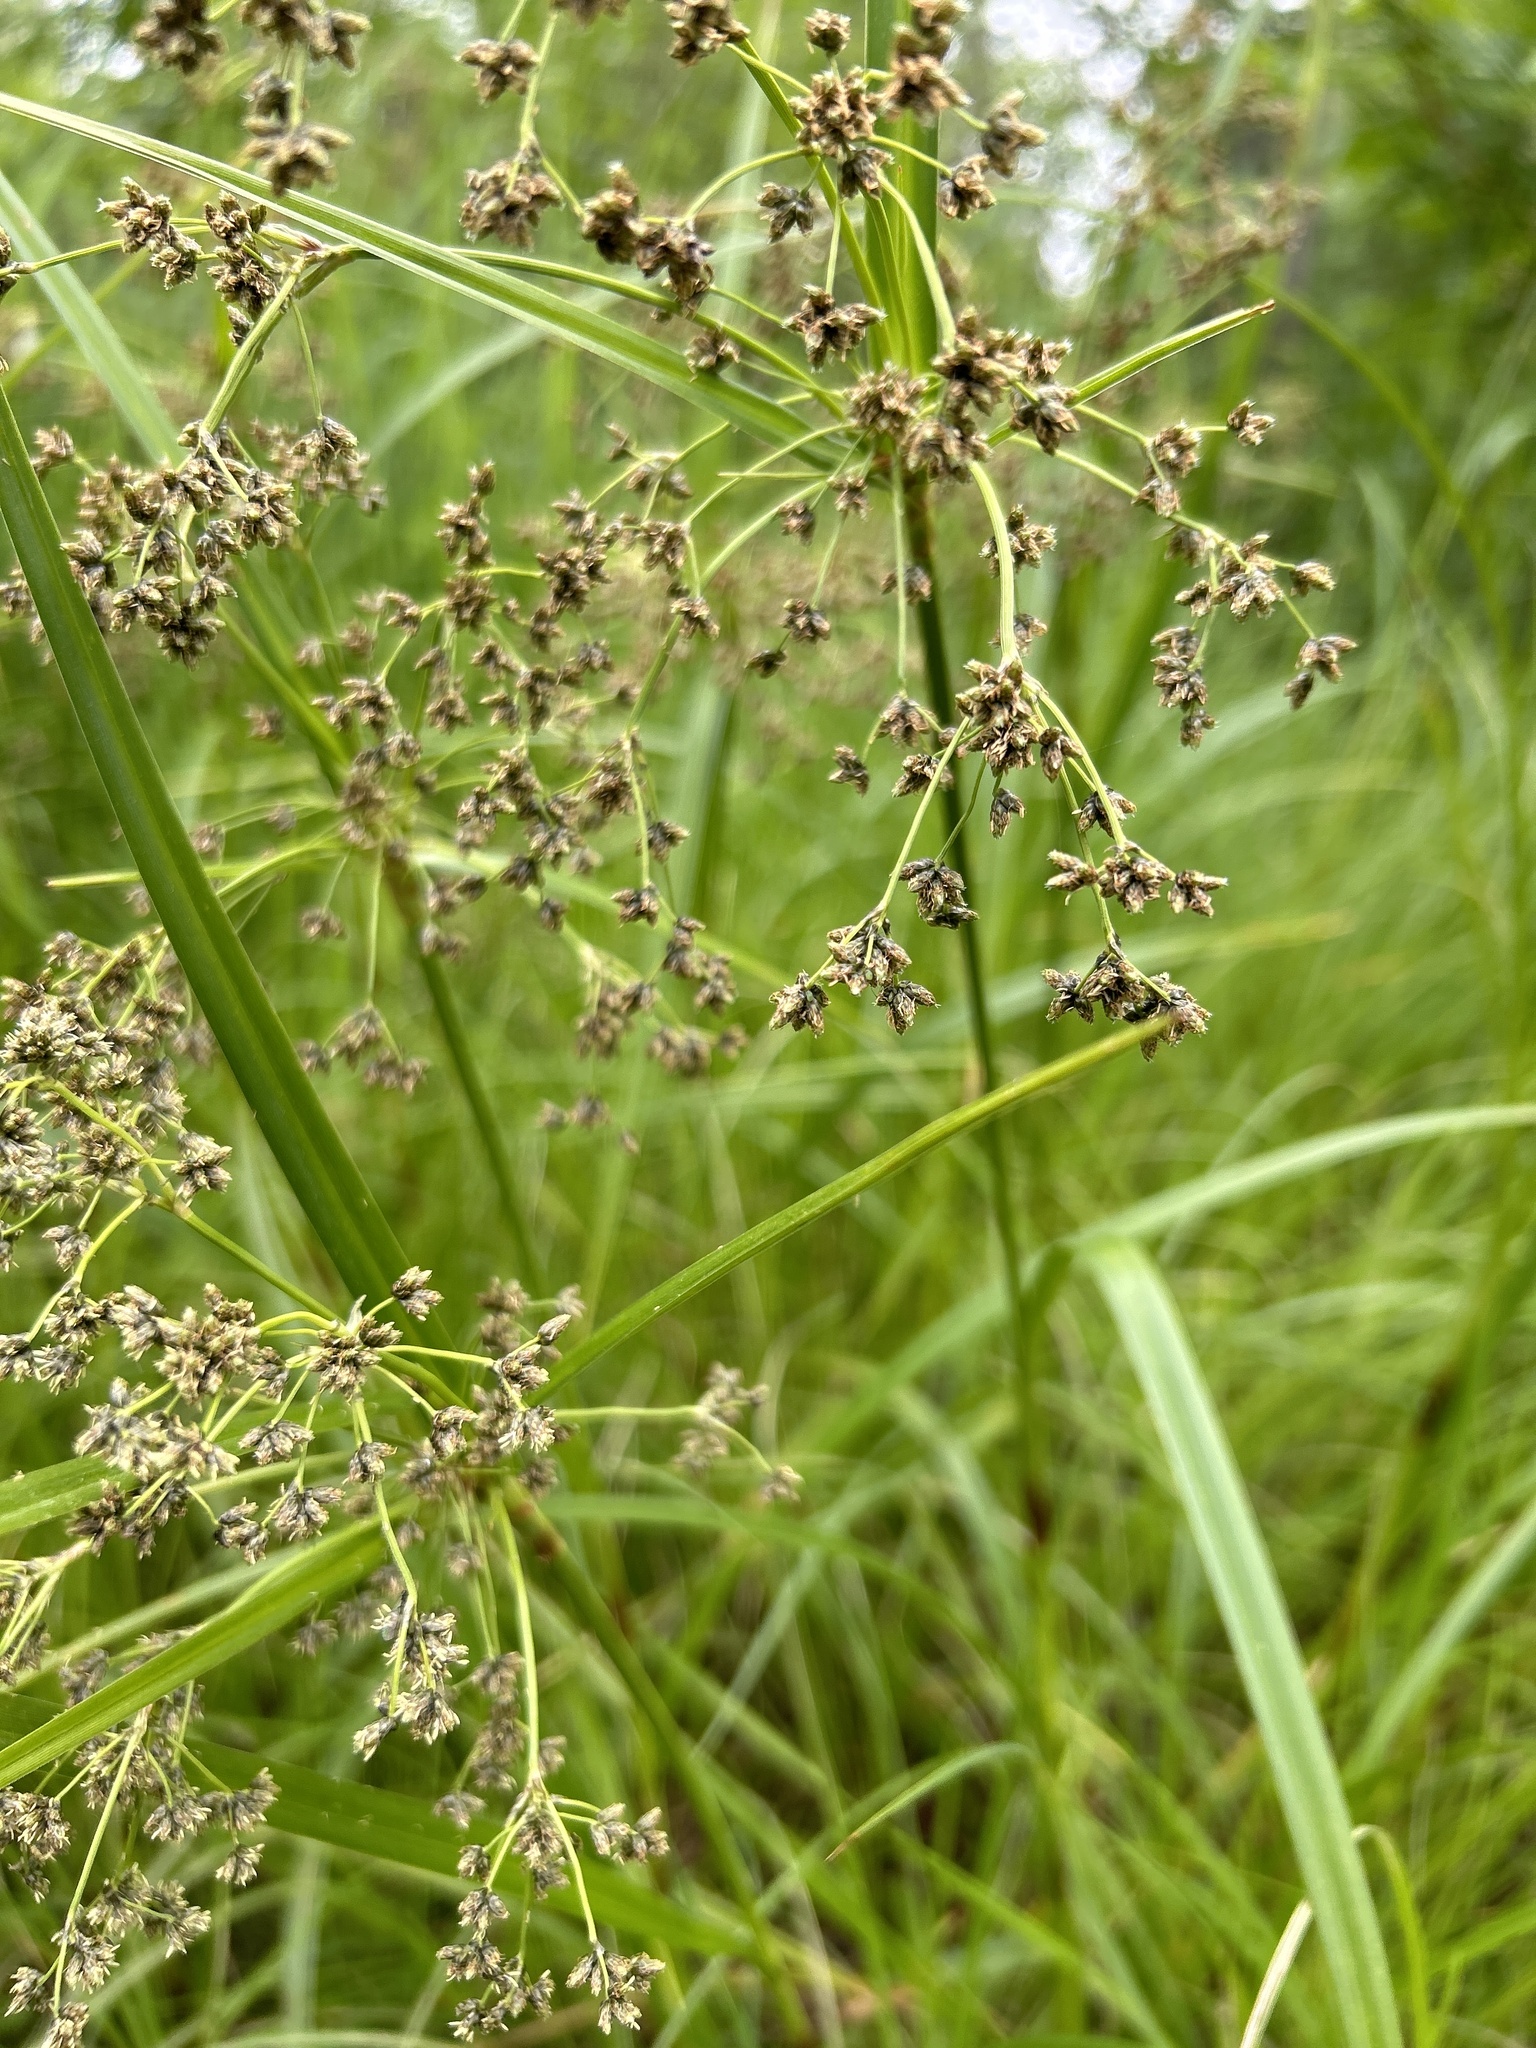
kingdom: Plantae
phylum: Tracheophyta
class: Liliopsida
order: Poales
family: Cyperaceae
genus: Scirpus
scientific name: Scirpus microcarpus
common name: Panicled bulrush
